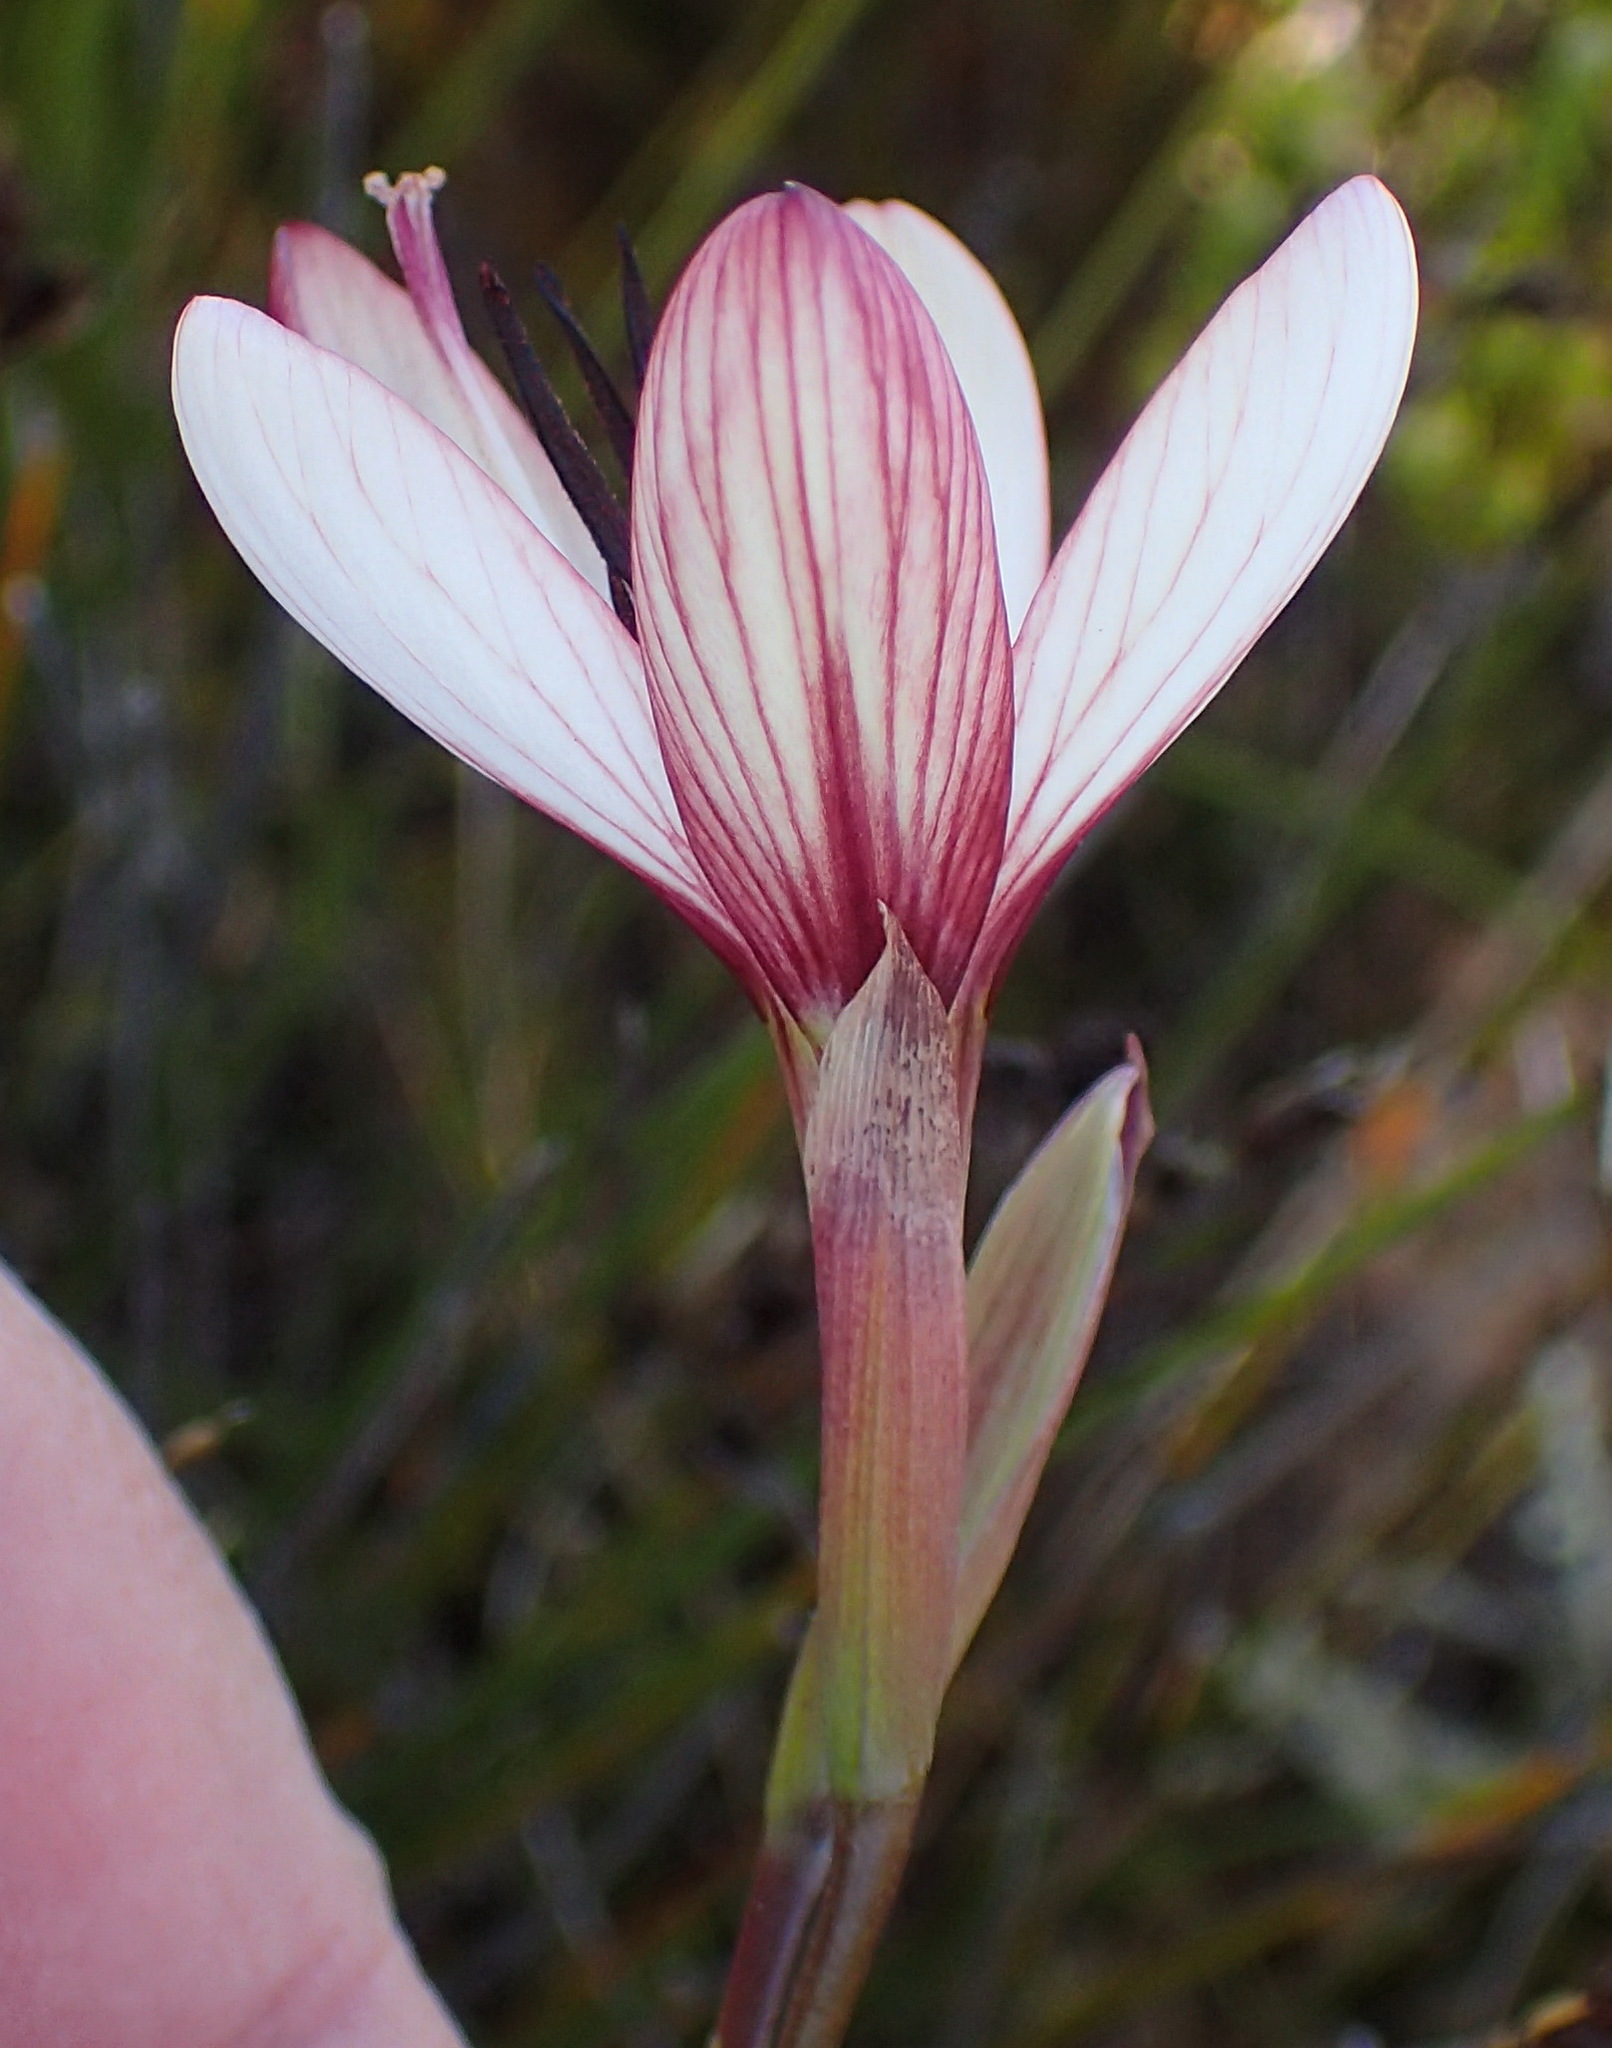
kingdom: Plantae
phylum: Tracheophyta
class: Liliopsida
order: Asparagales
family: Iridaceae
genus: Geissorhiza
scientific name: Geissorhiza fourcadei
